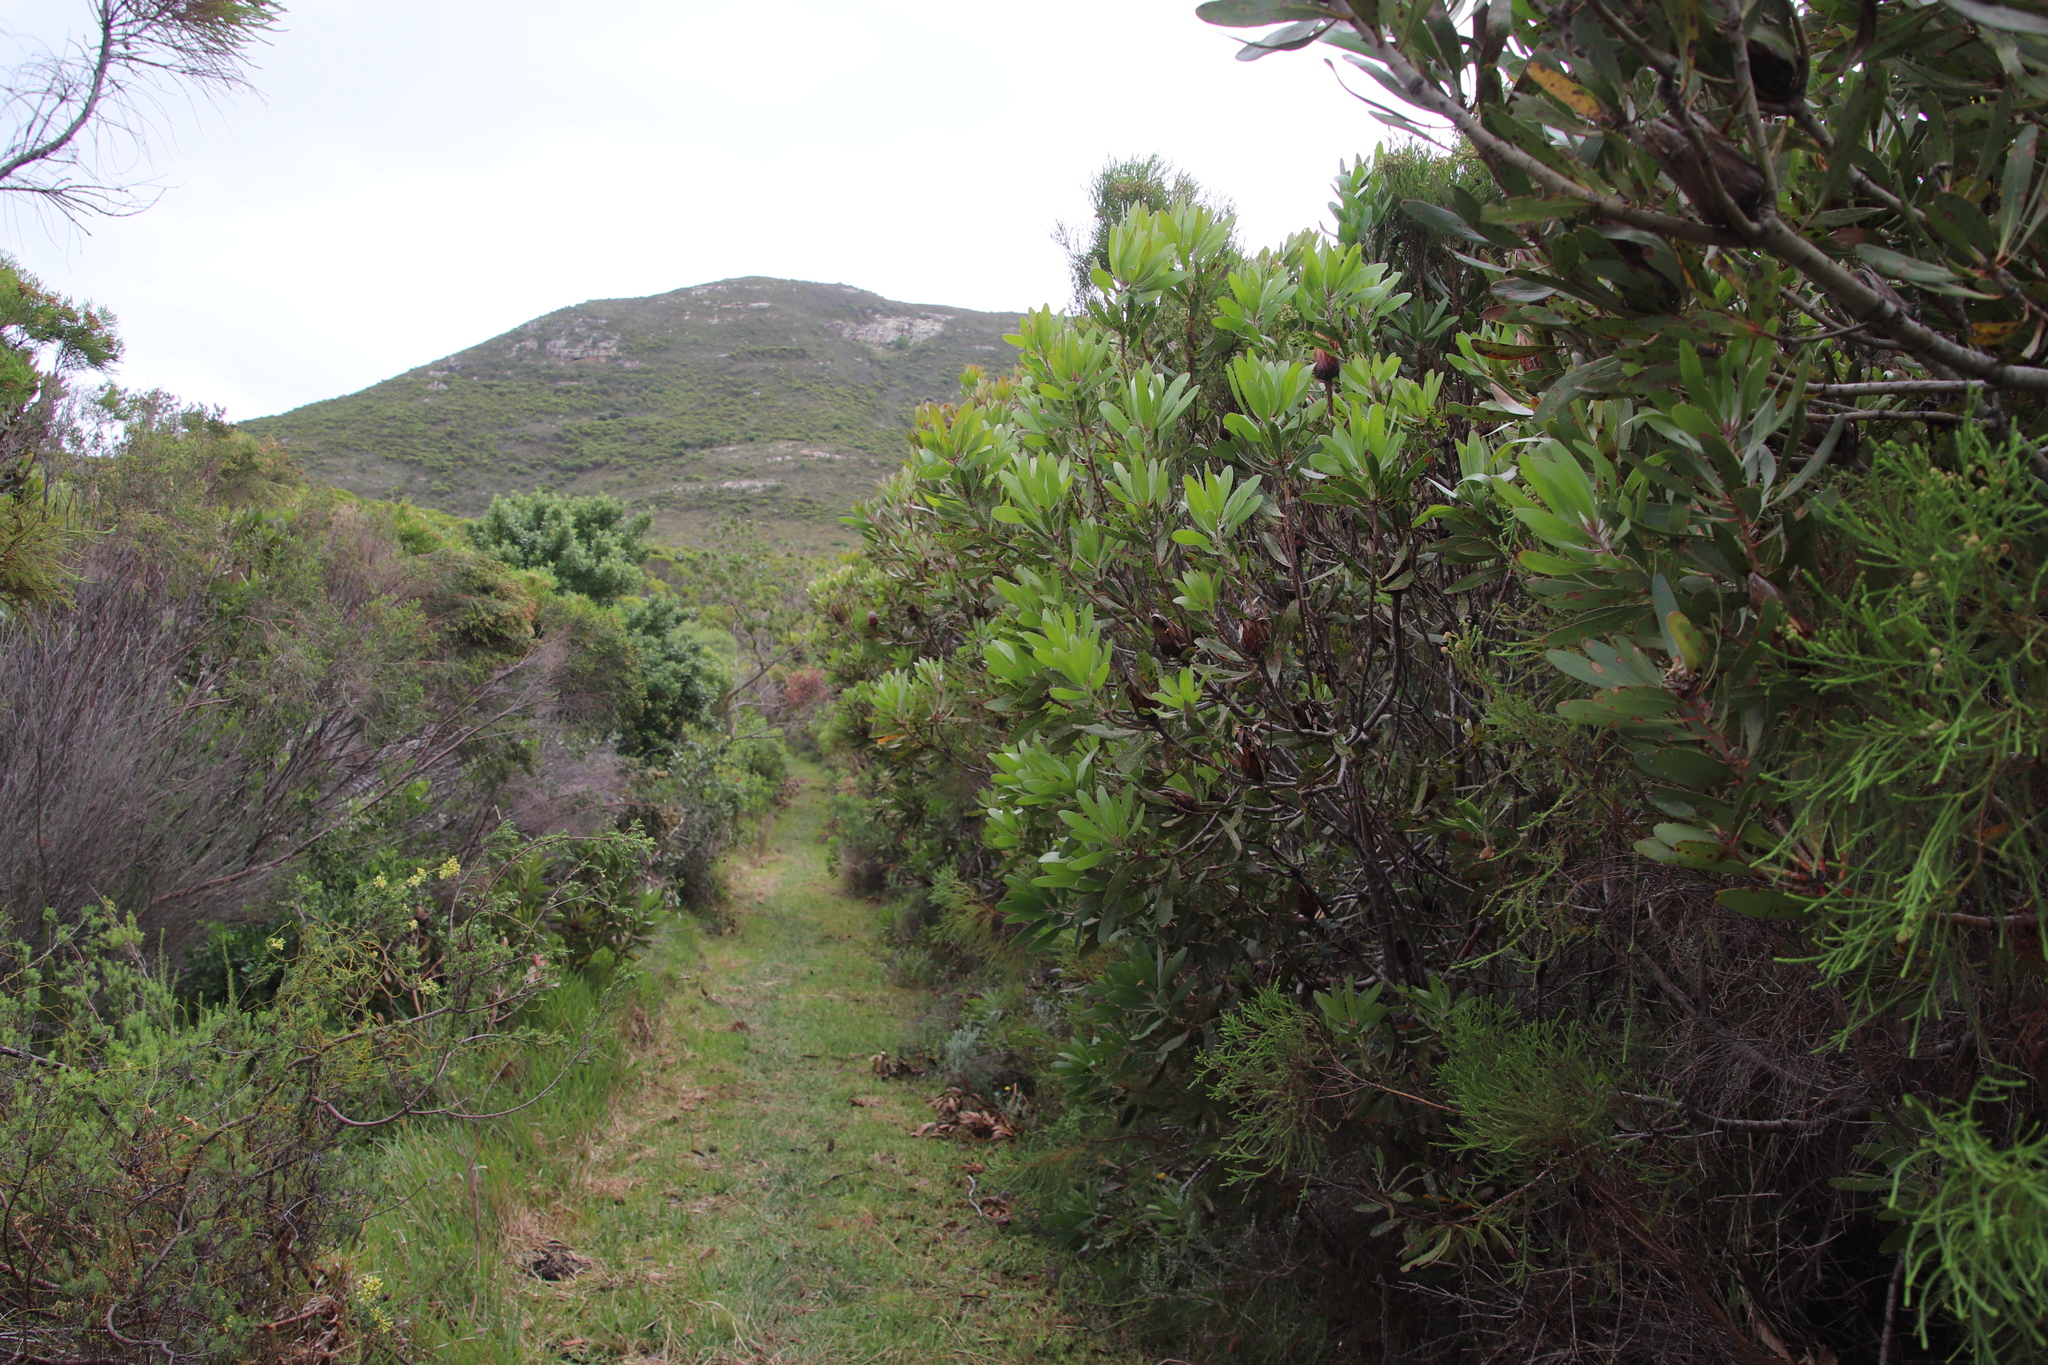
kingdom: Plantae
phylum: Tracheophyta
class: Magnoliopsida
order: Proteales
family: Proteaceae
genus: Protea
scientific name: Protea obtusifolia
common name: Bredasdorp sugarbush
